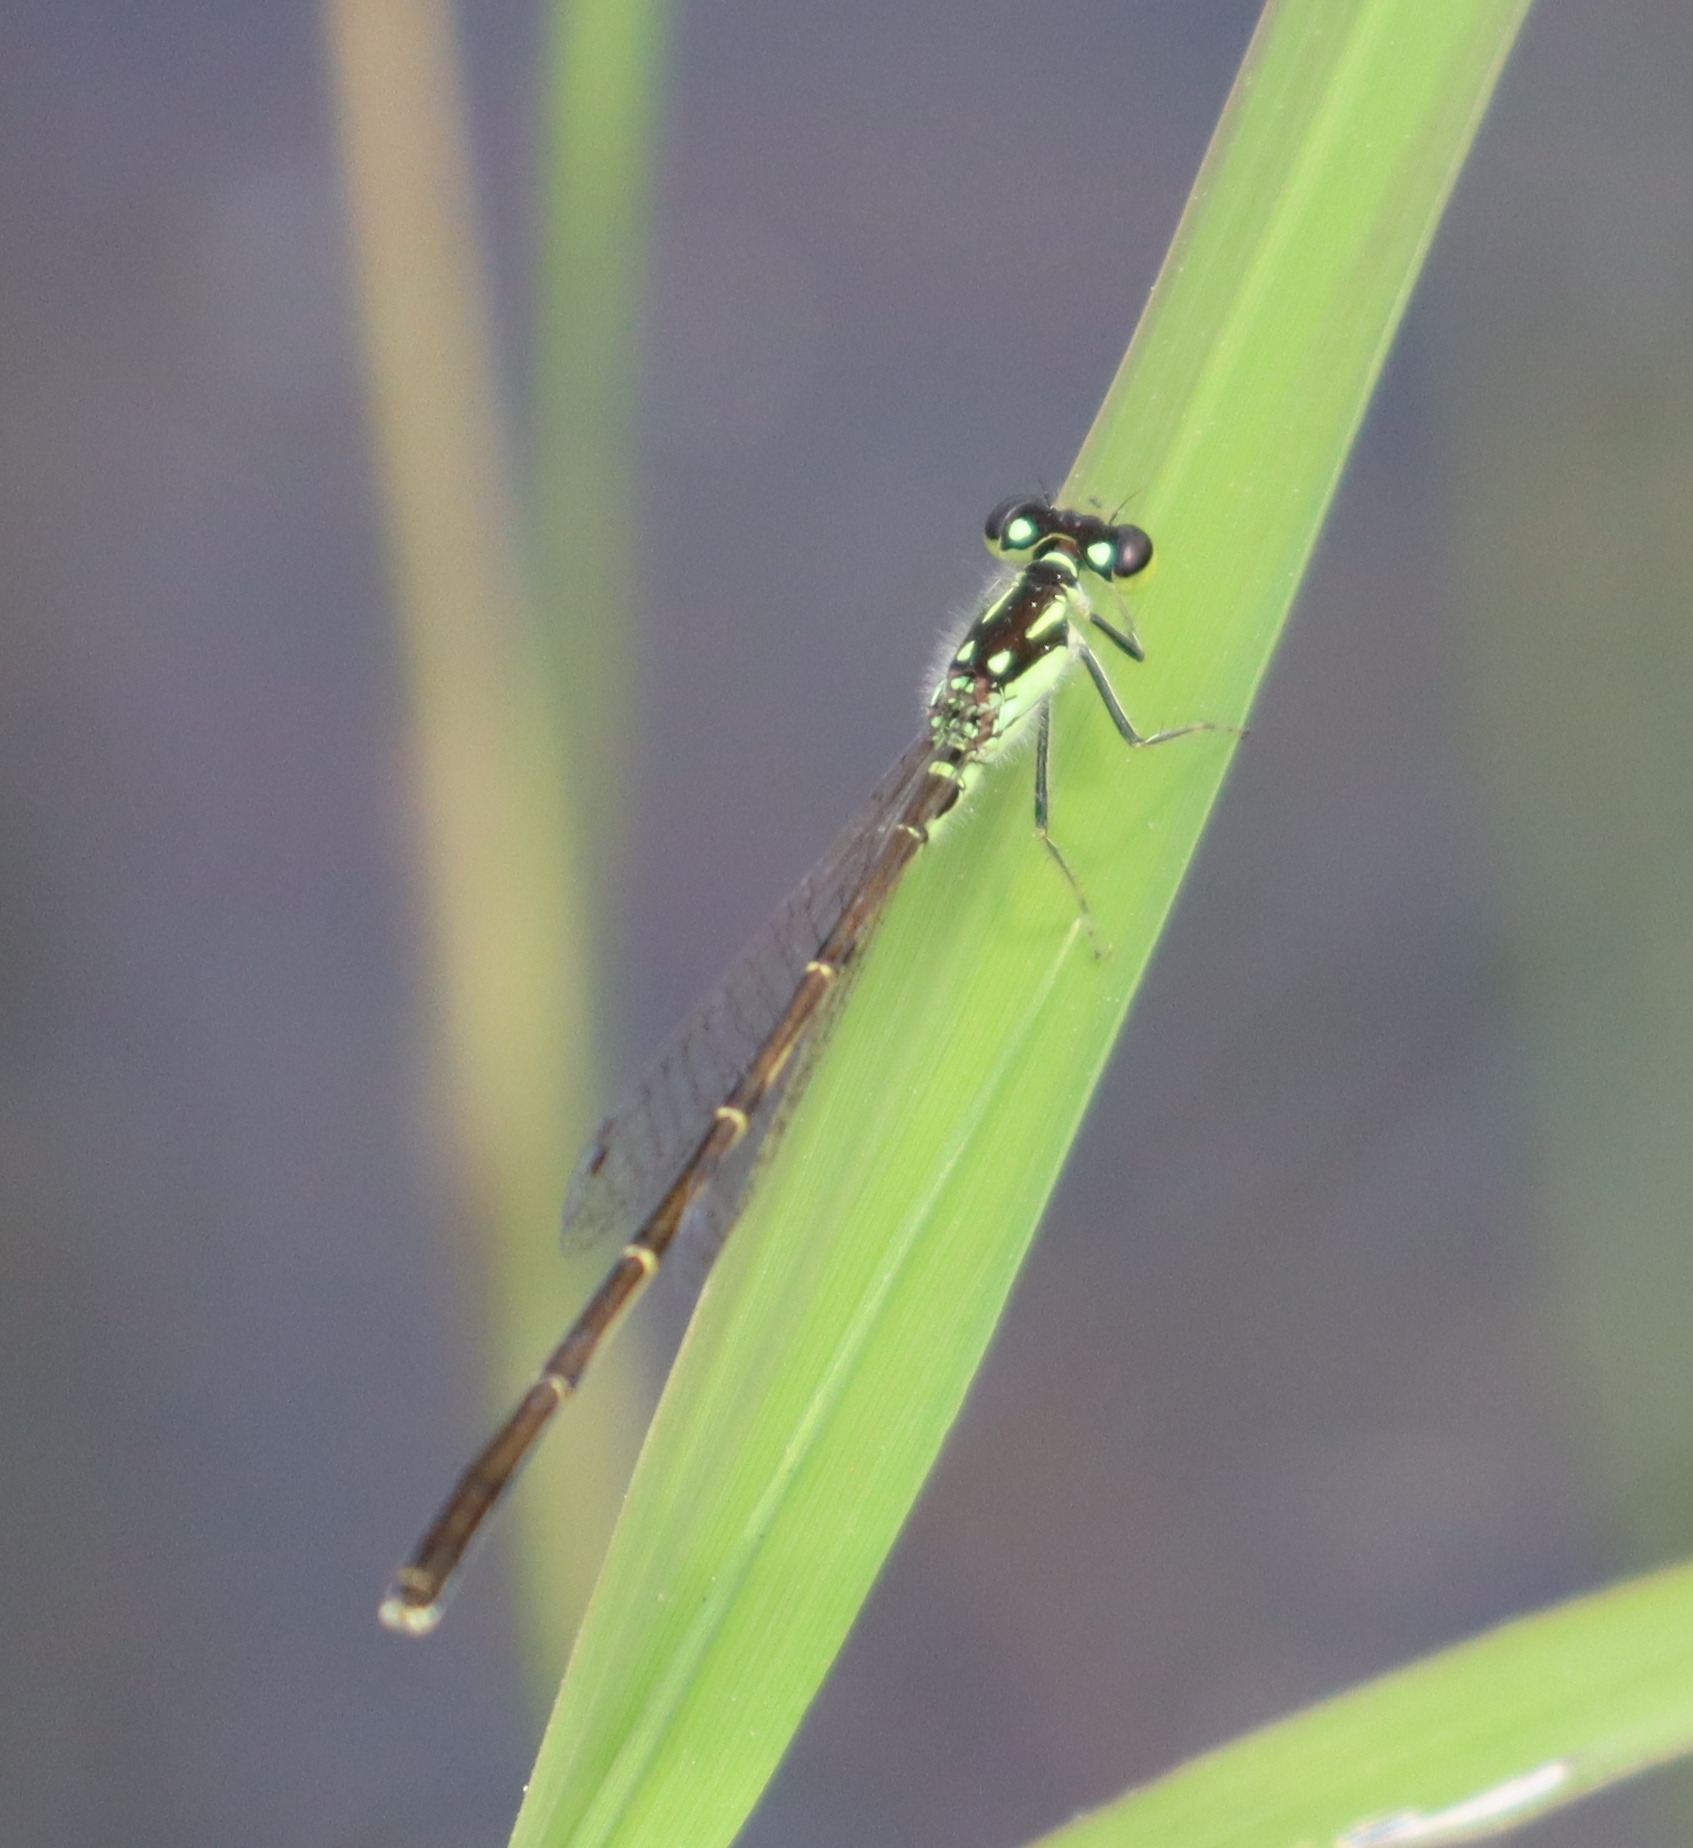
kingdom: Animalia
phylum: Arthropoda
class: Insecta
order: Odonata
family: Coenagrionidae
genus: Ischnura
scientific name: Ischnura posita
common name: Fragile forktail
